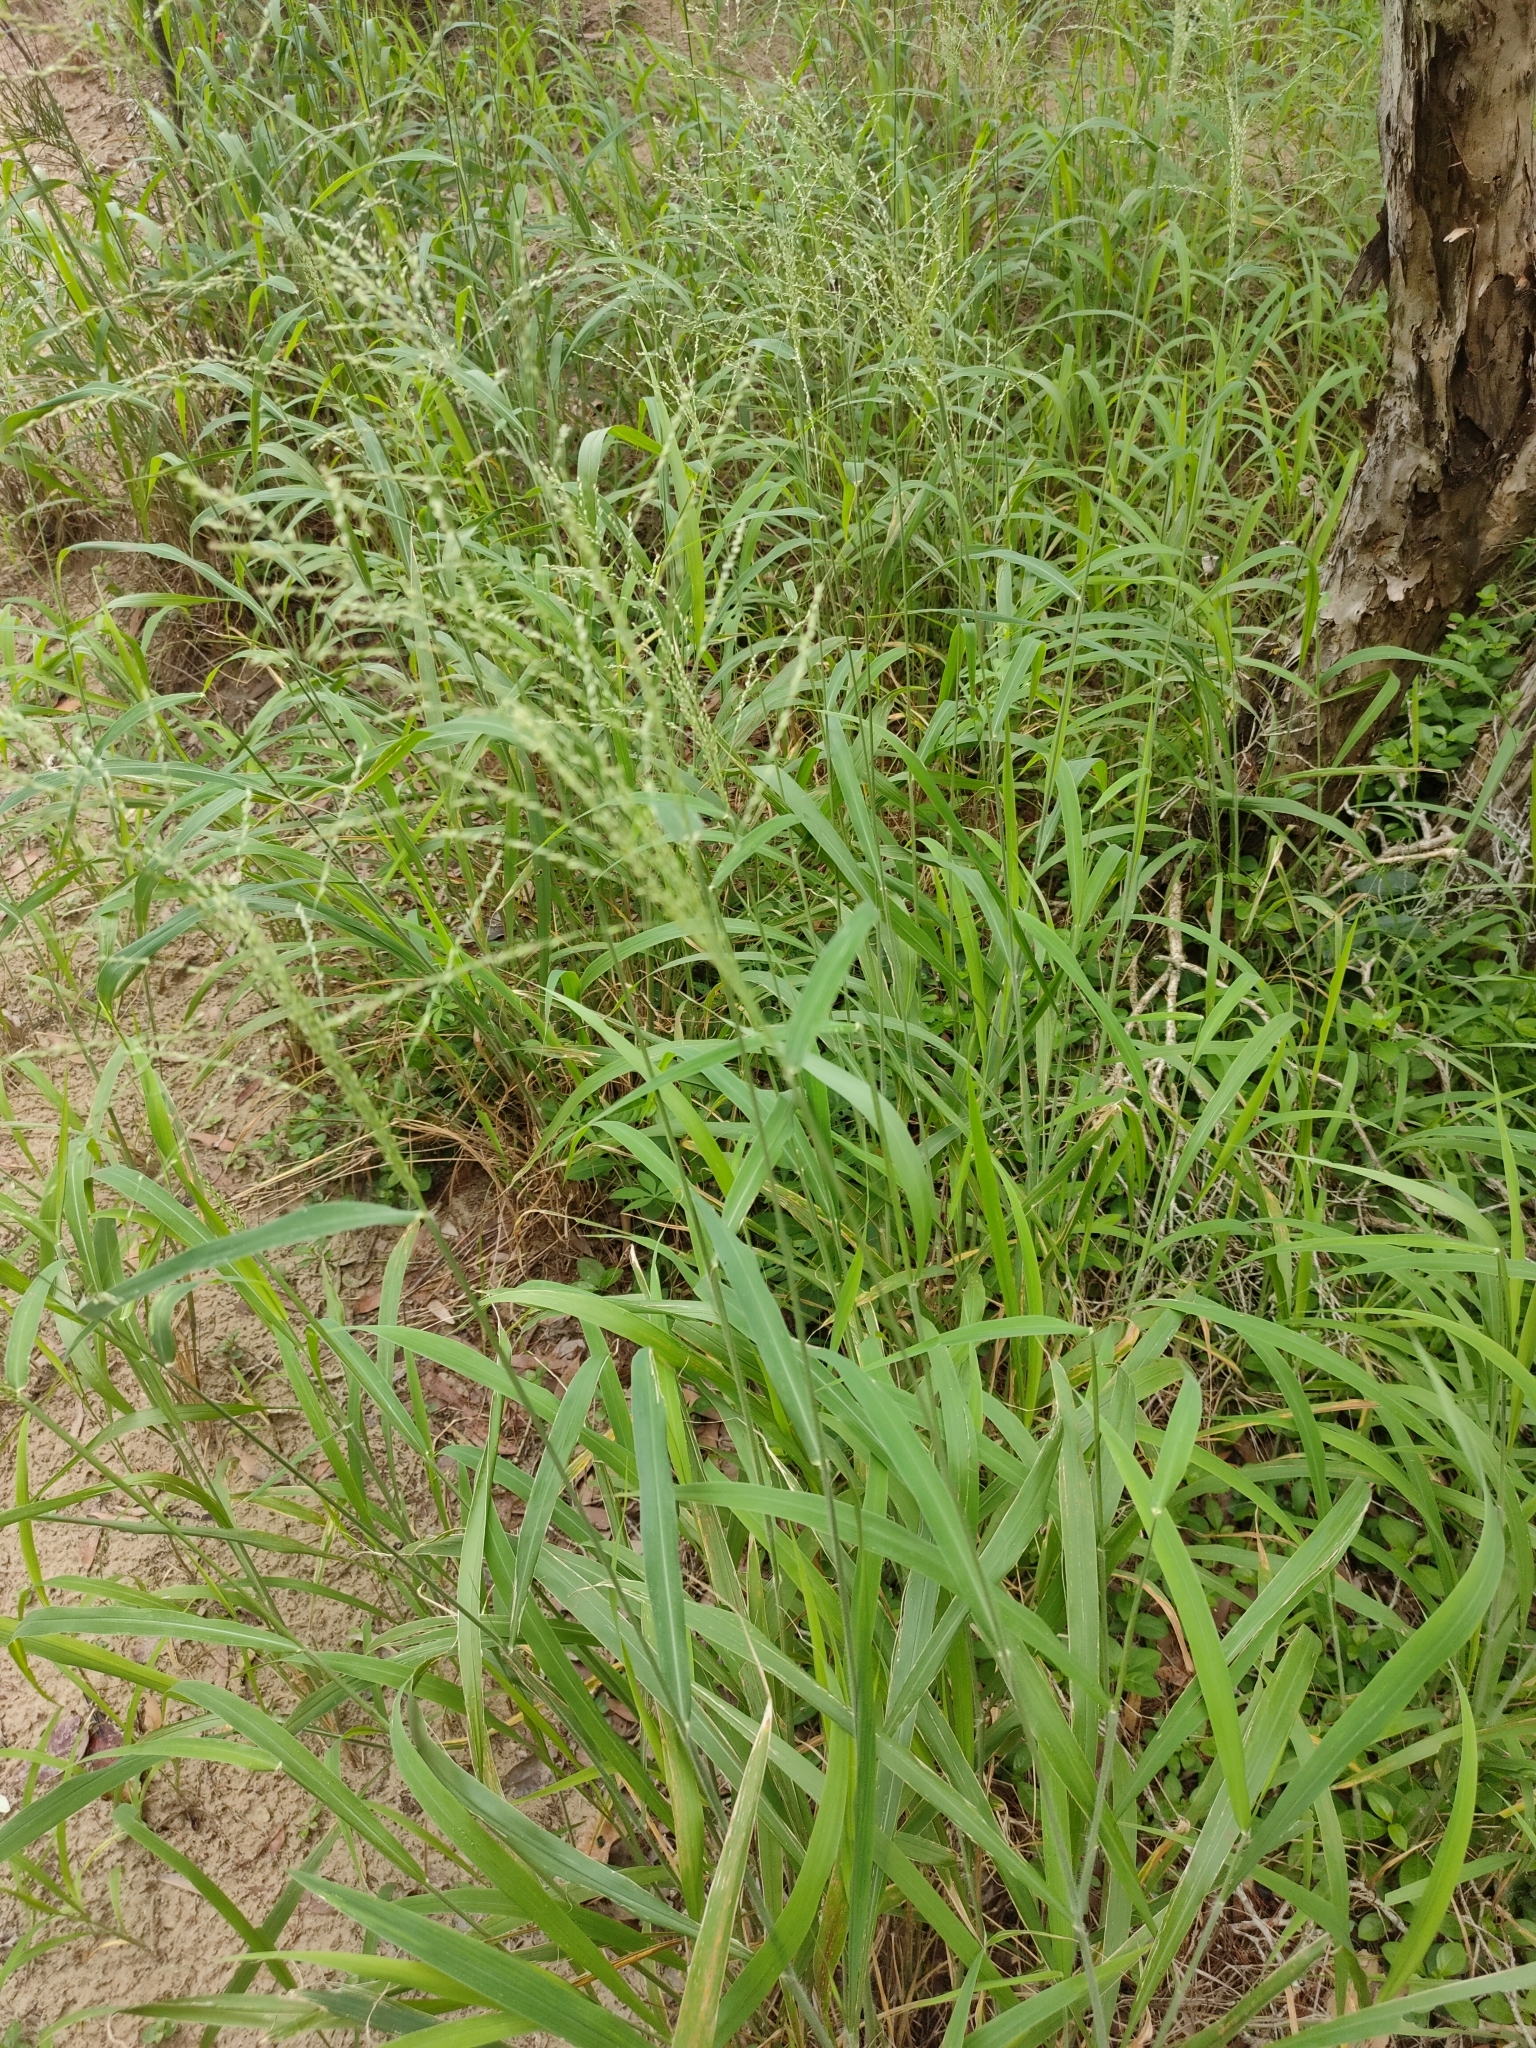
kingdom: Plantae
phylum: Tracheophyta
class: Liliopsida
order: Poales
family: Poaceae
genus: Megathyrsus
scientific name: Megathyrsus maximus
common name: Guineagrass
